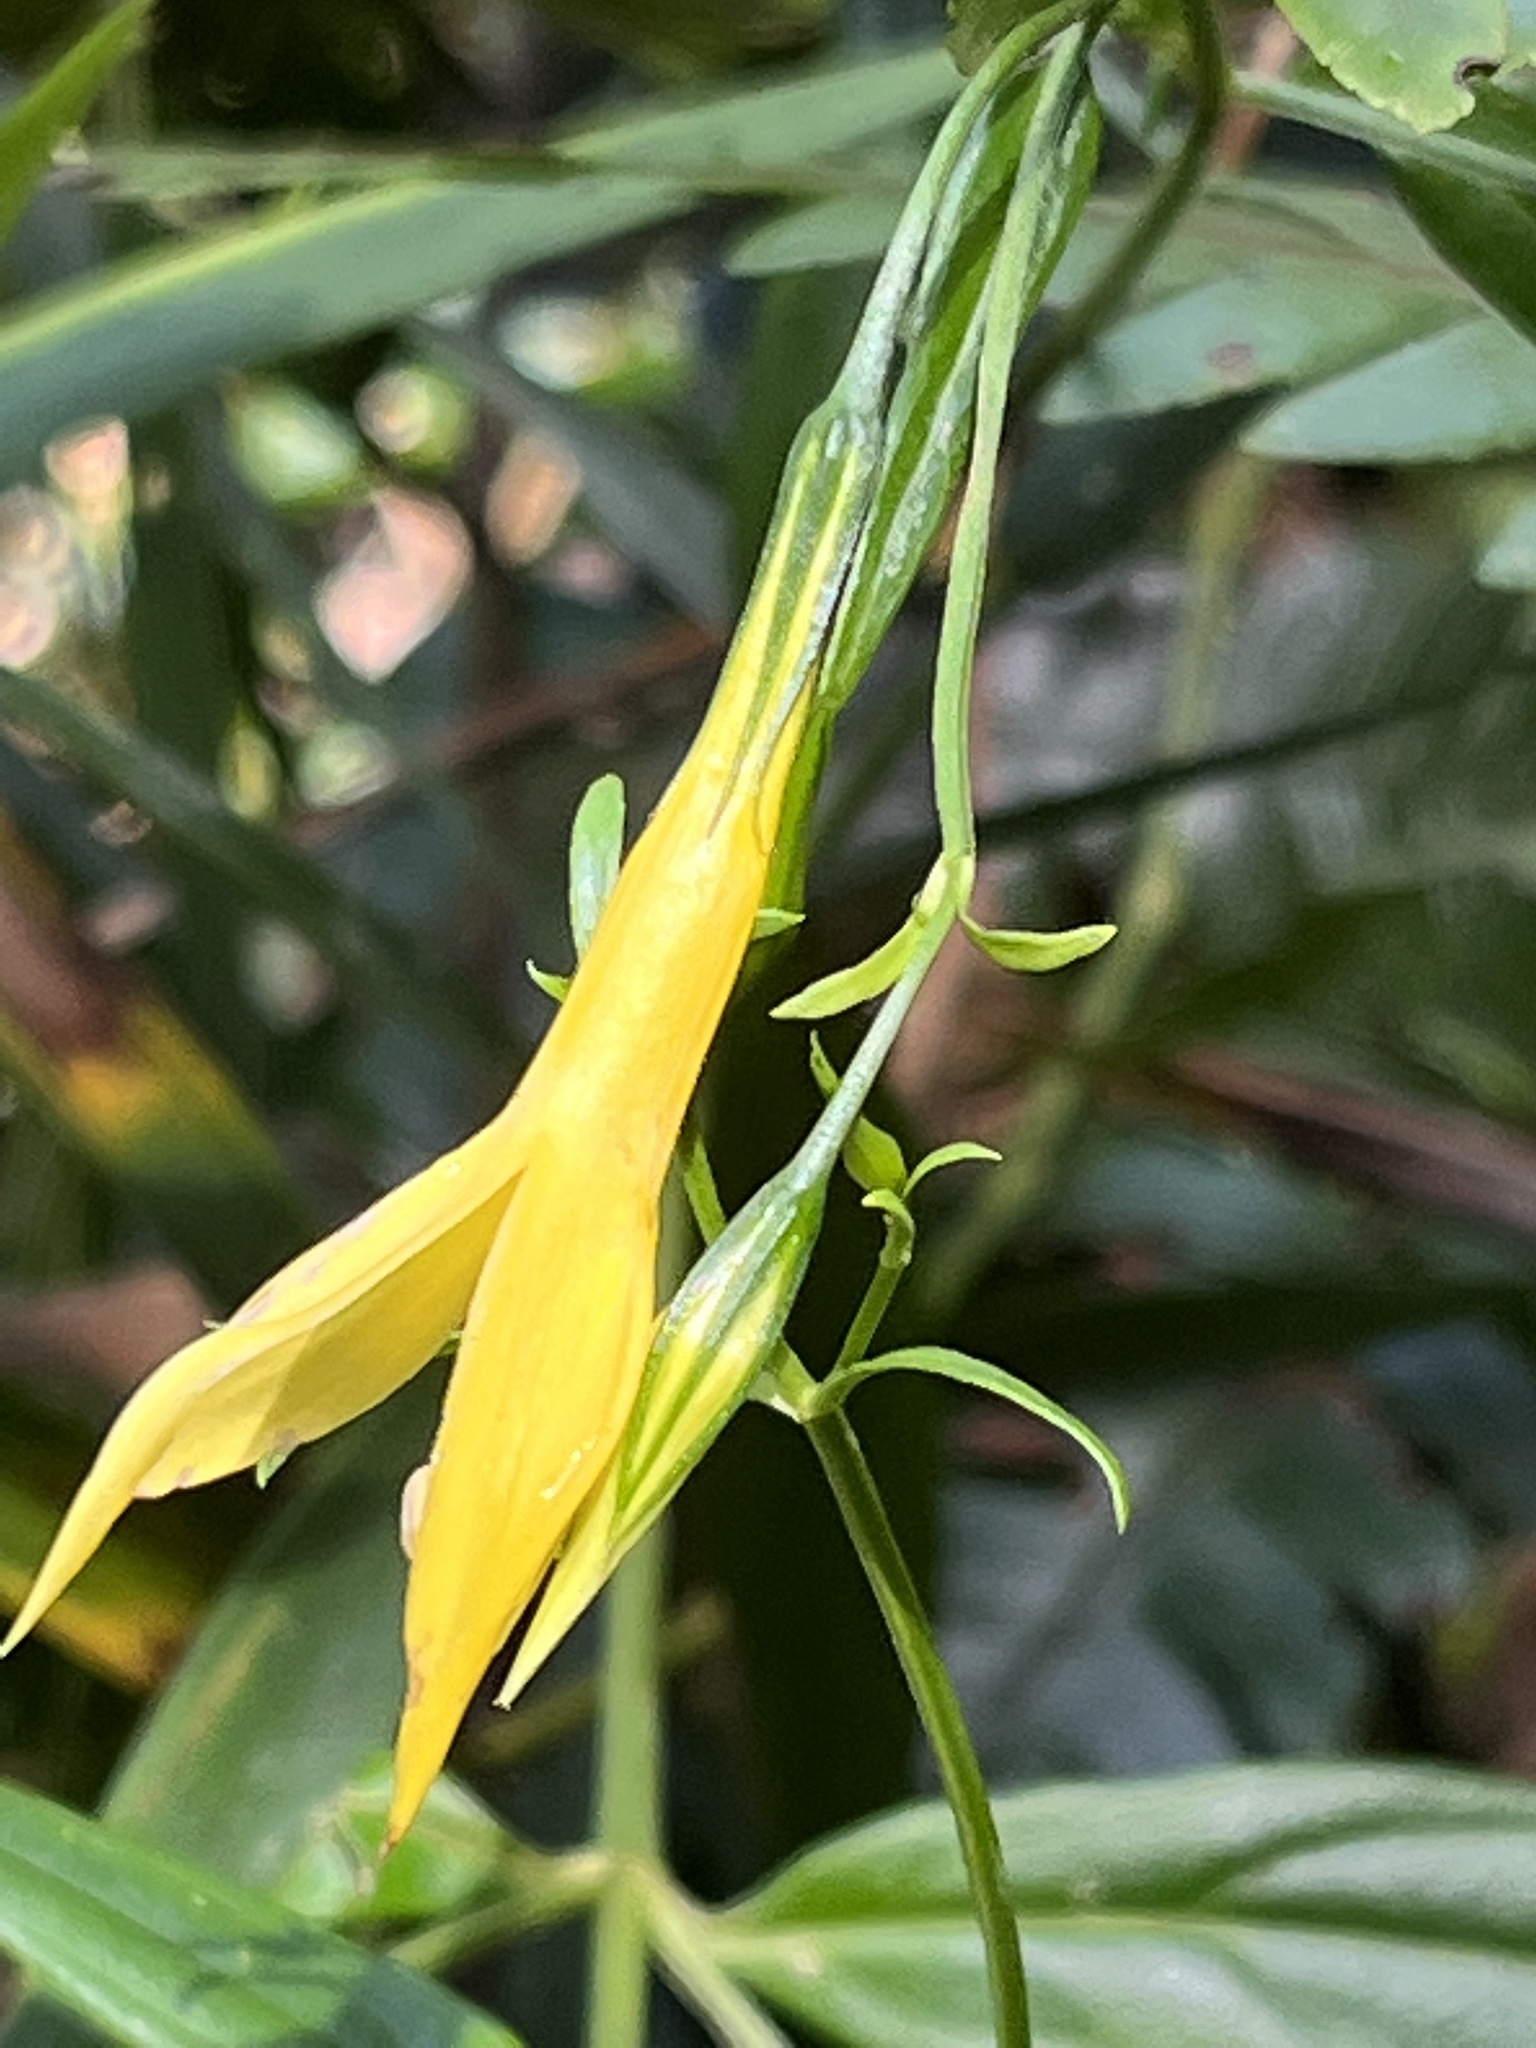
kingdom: Plantae
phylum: Tracheophyta
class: Magnoliopsida
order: Gentianales
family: Gentianaceae
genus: Lisianthius
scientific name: Lisianthius laxiflorus
